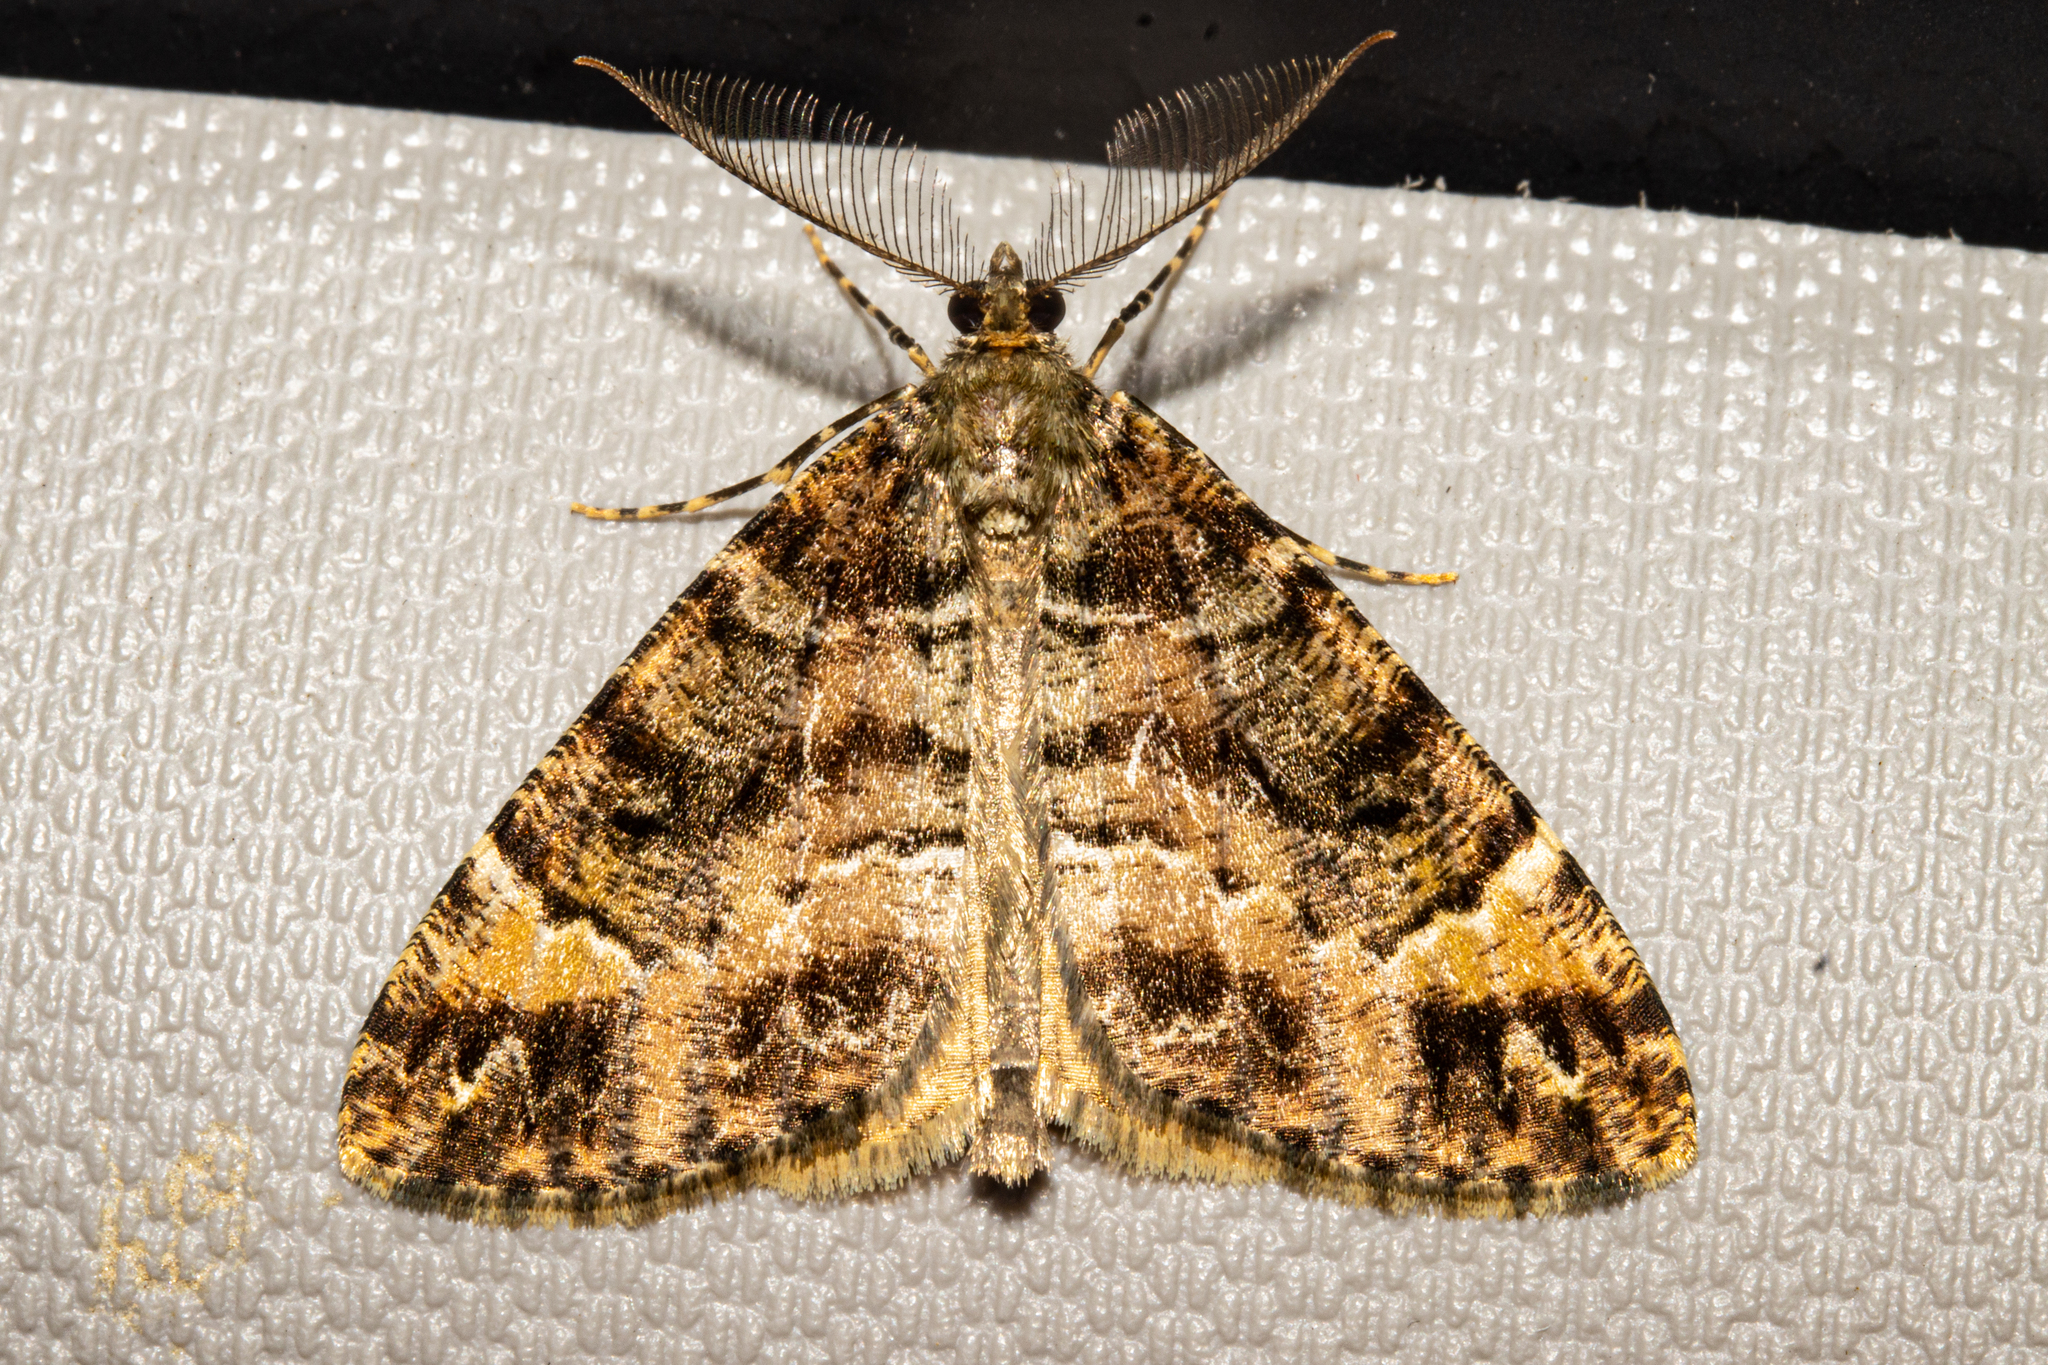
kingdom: Animalia
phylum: Arthropoda
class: Insecta
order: Lepidoptera
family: Geometridae
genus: Pseudocoremia
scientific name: Pseudocoremia productata
